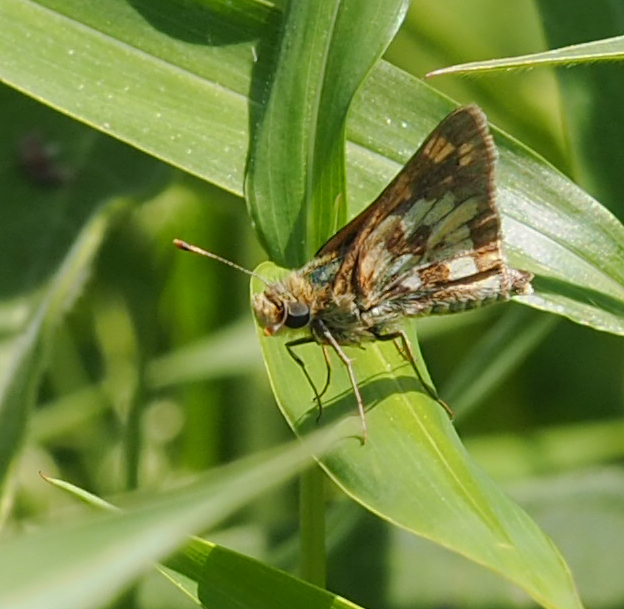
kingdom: Animalia
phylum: Arthropoda
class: Insecta
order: Lepidoptera
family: Hesperiidae
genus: Polites
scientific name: Polites coras
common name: Peck's skipper
